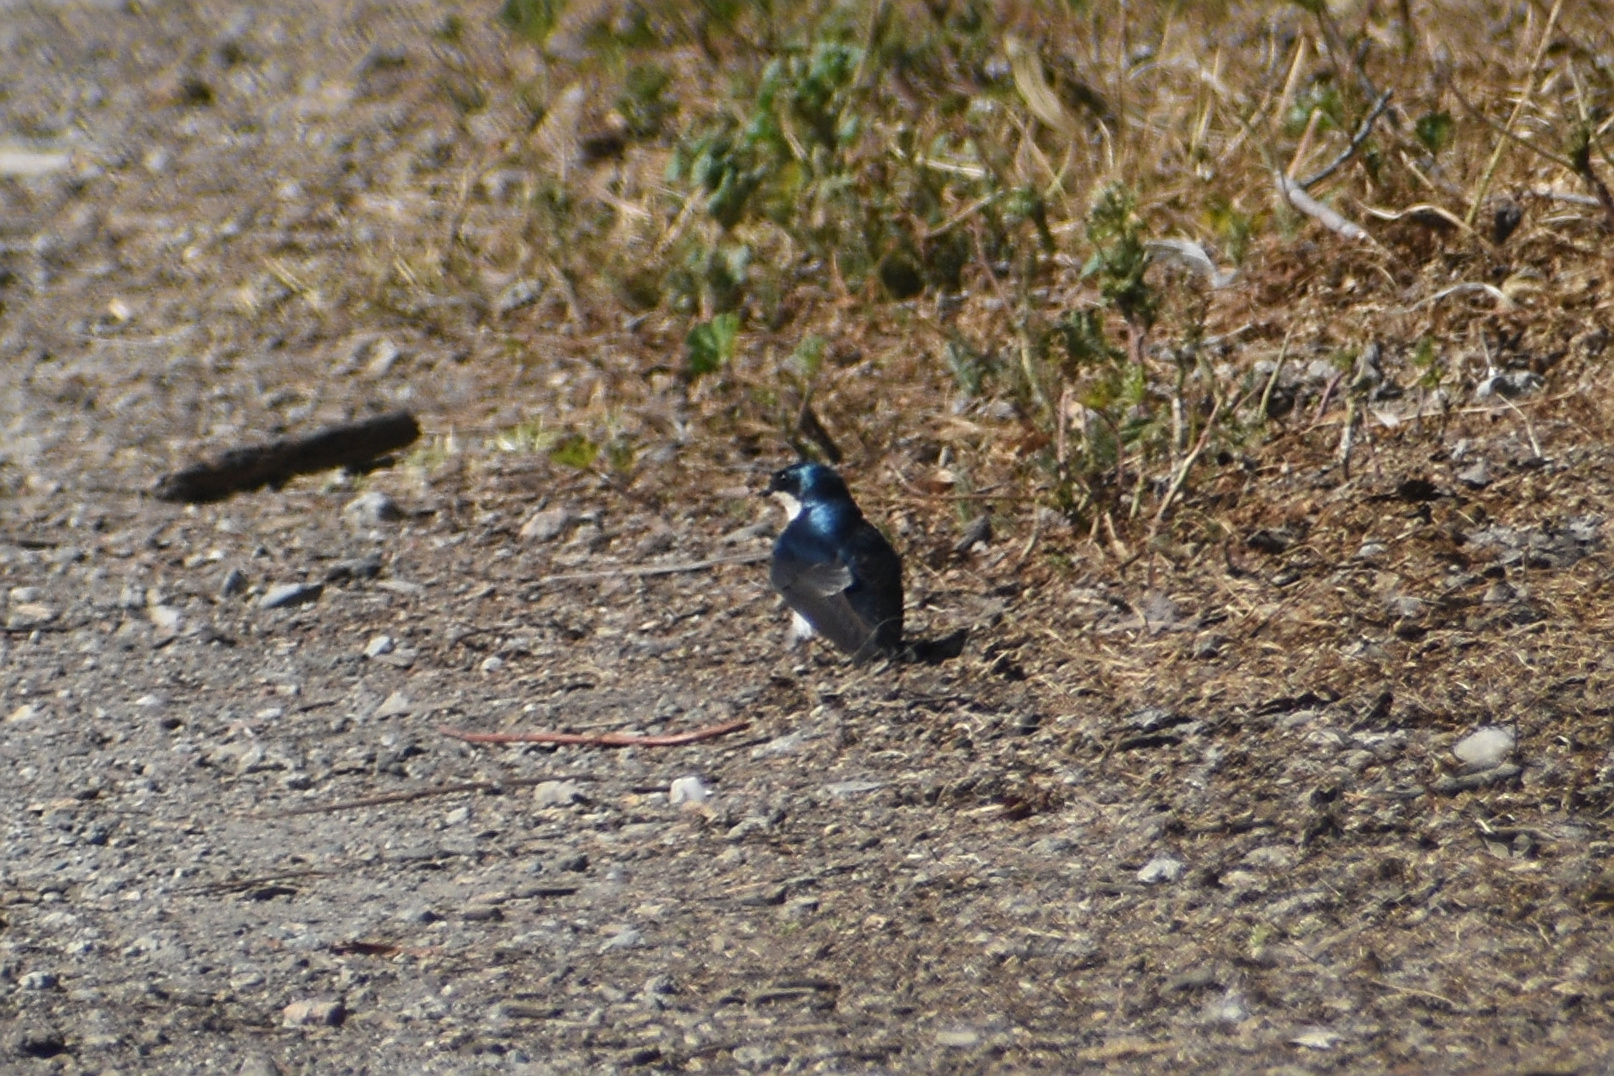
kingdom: Animalia
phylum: Chordata
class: Aves
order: Passeriformes
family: Hirundinidae
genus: Tachycineta
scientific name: Tachycineta bicolor
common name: Tree swallow
